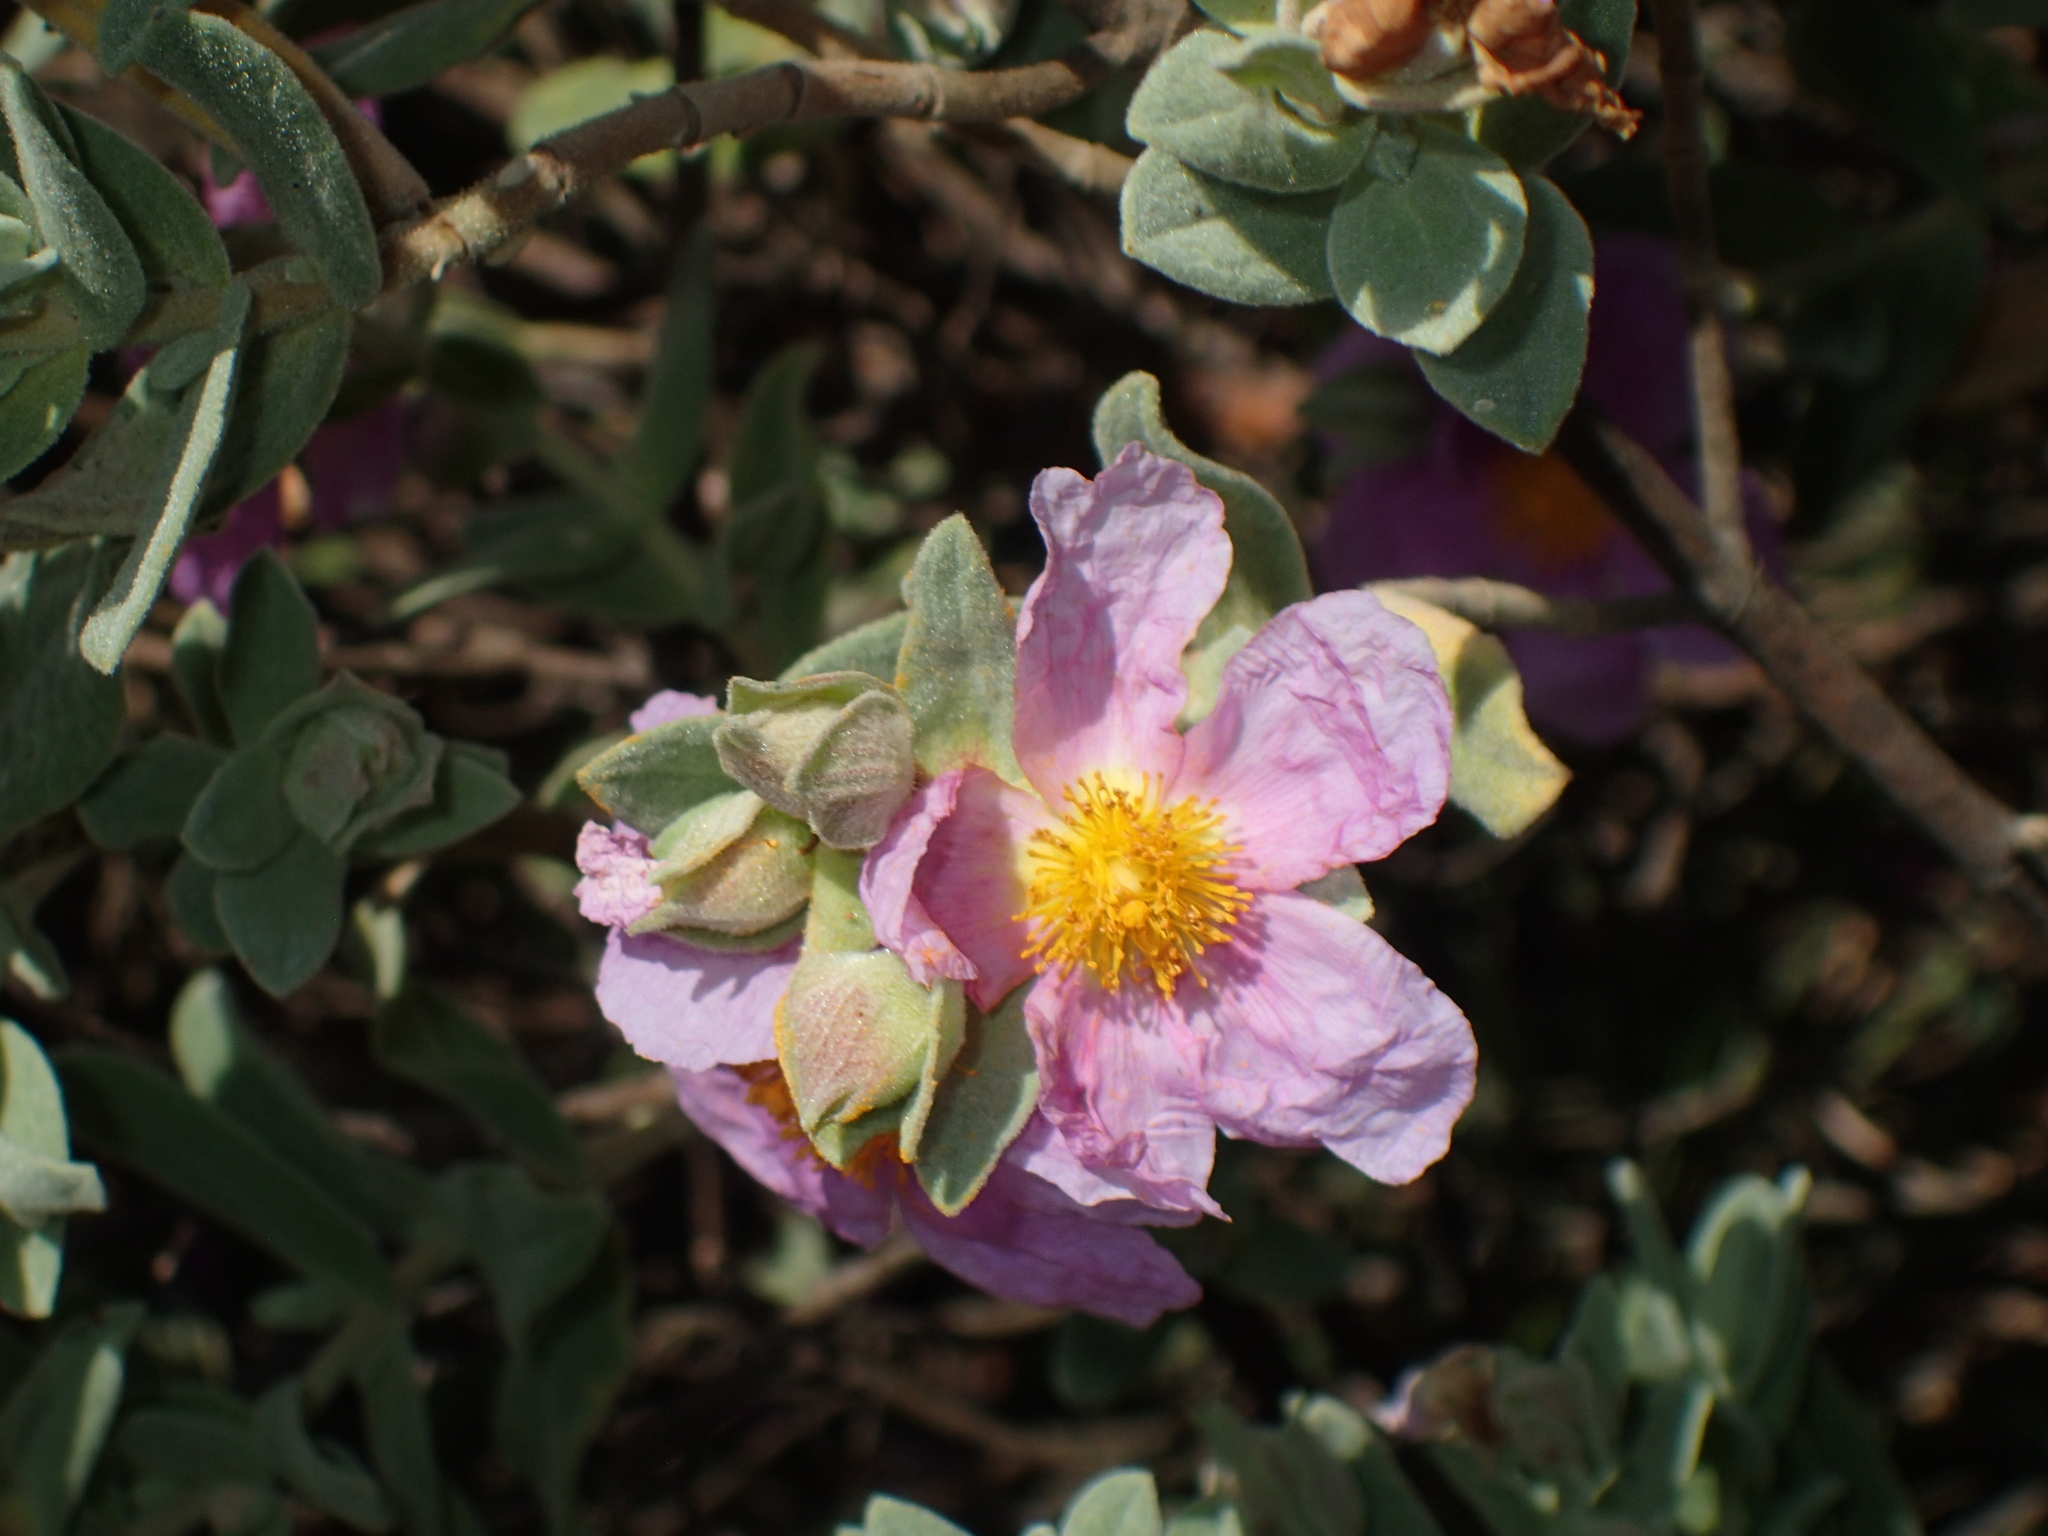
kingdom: Plantae
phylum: Tracheophyta
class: Magnoliopsida
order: Malvales
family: Cistaceae
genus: Cistus
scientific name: Cistus albidus
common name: White-leaf rock-rose
